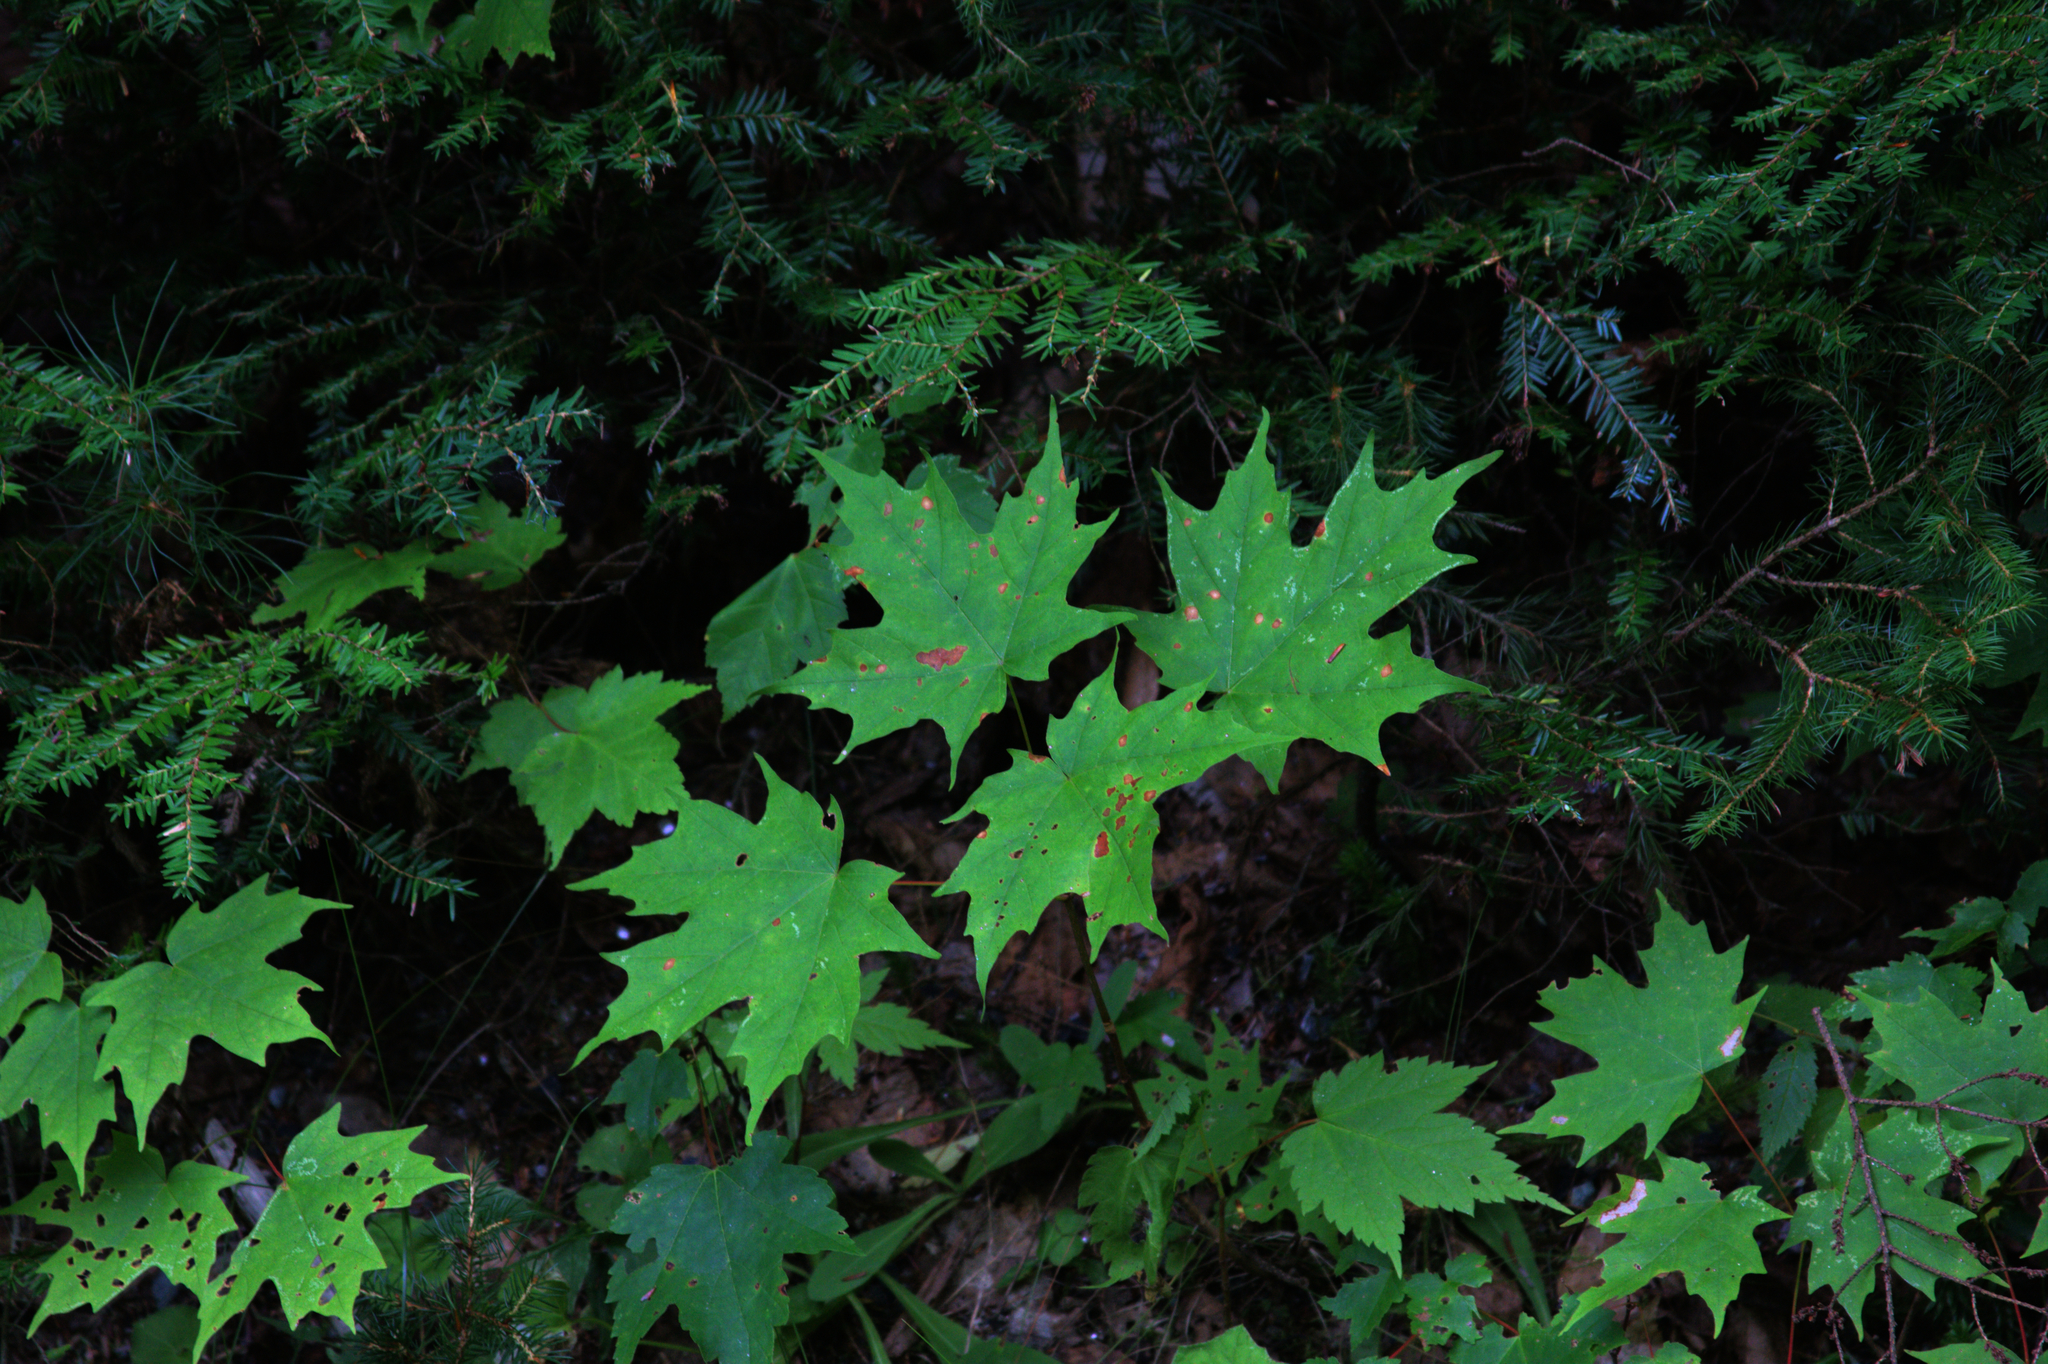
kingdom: Plantae
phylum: Tracheophyta
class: Magnoliopsida
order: Sapindales
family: Sapindaceae
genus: Acer
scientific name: Acer saccharum
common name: Sugar maple
